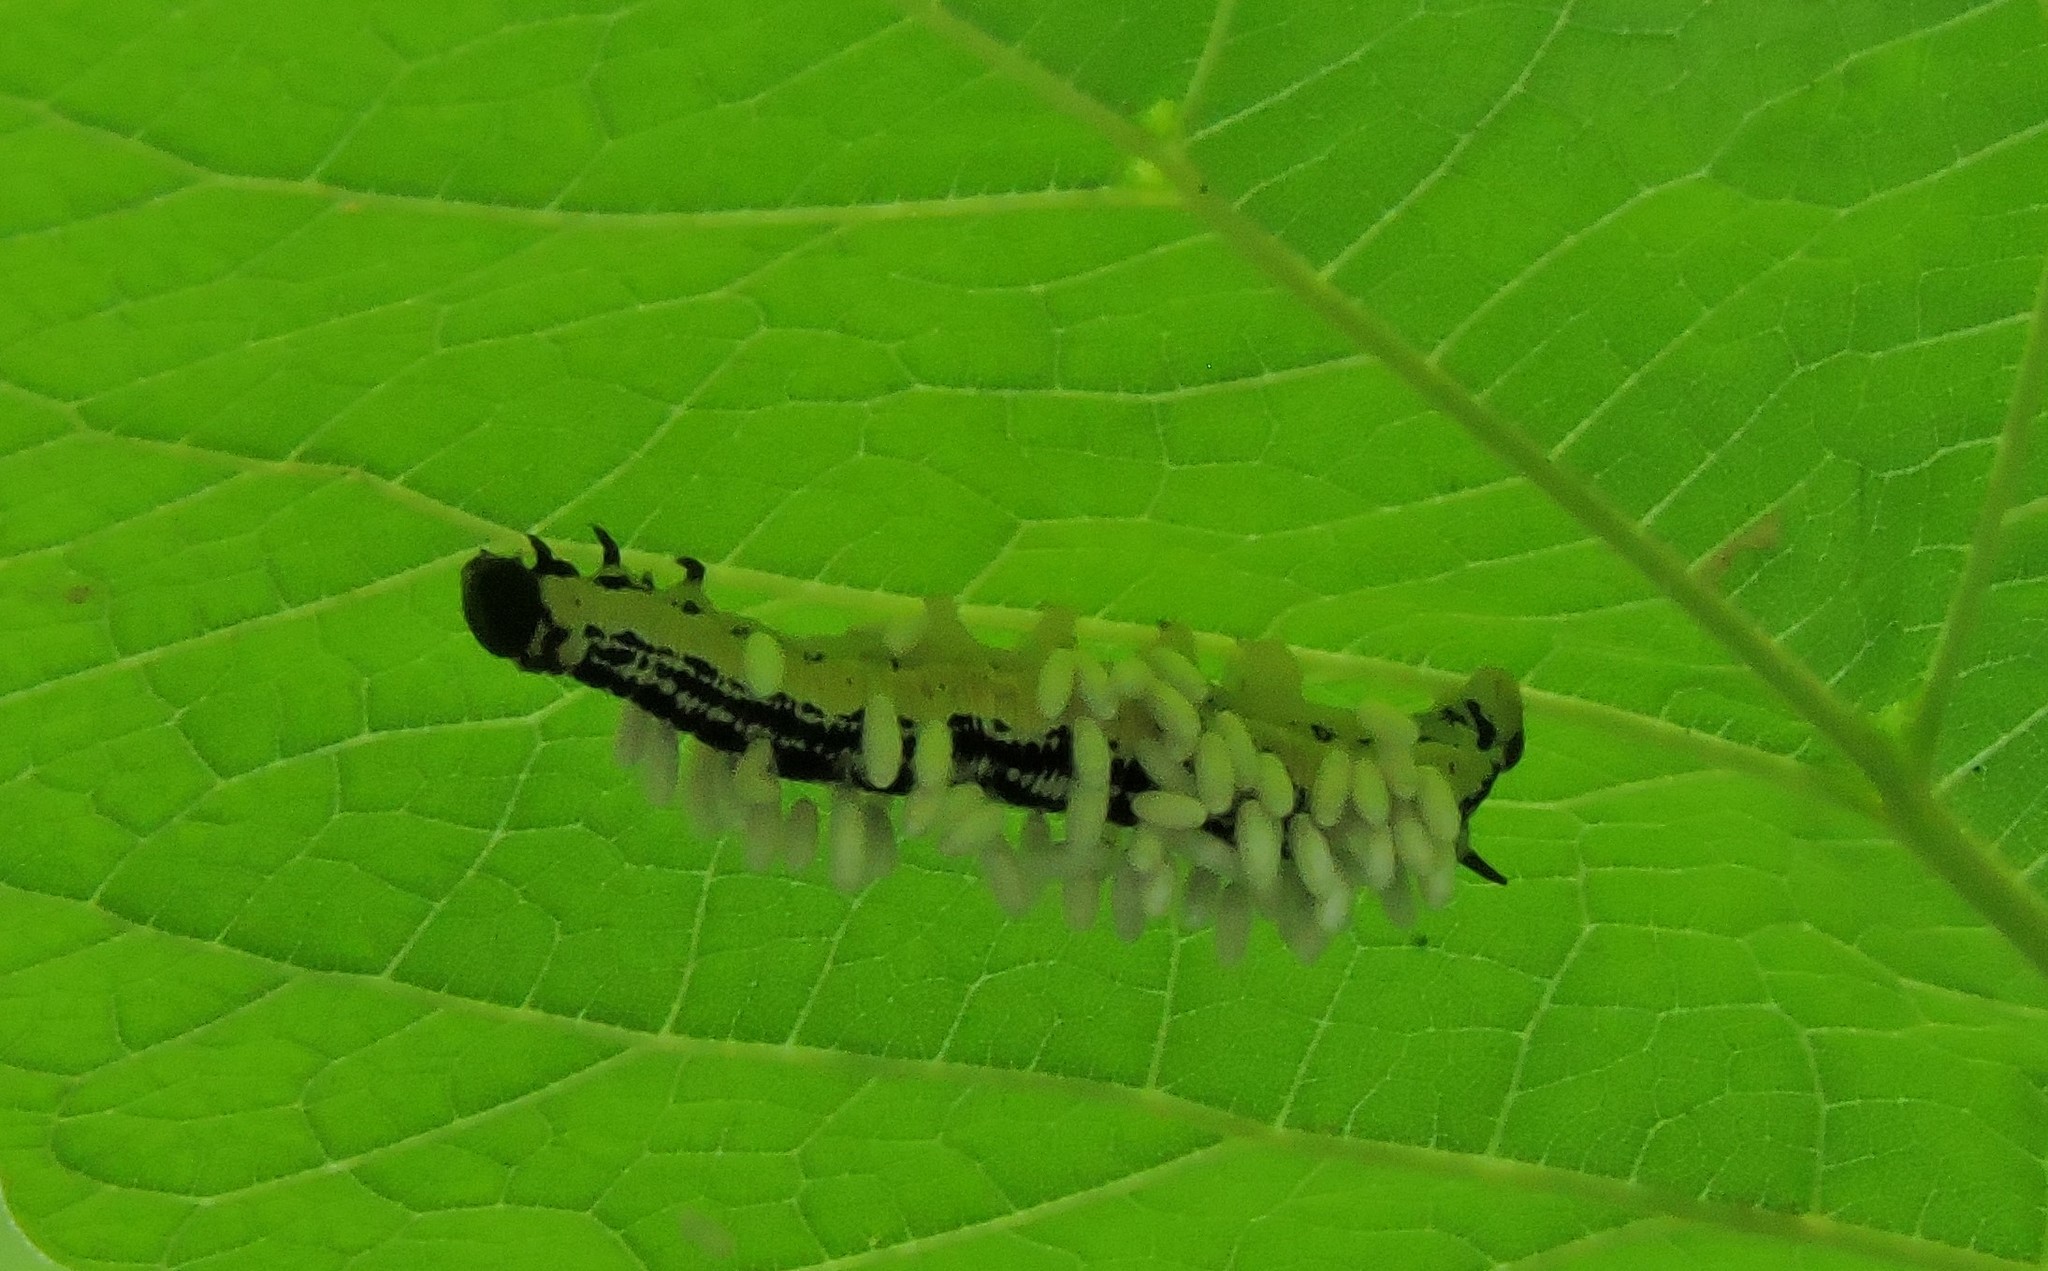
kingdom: Animalia
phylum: Arthropoda
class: Insecta
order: Lepidoptera
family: Sphingidae
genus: Ceratomia
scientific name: Ceratomia catalpae
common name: Catalpa hornworm
